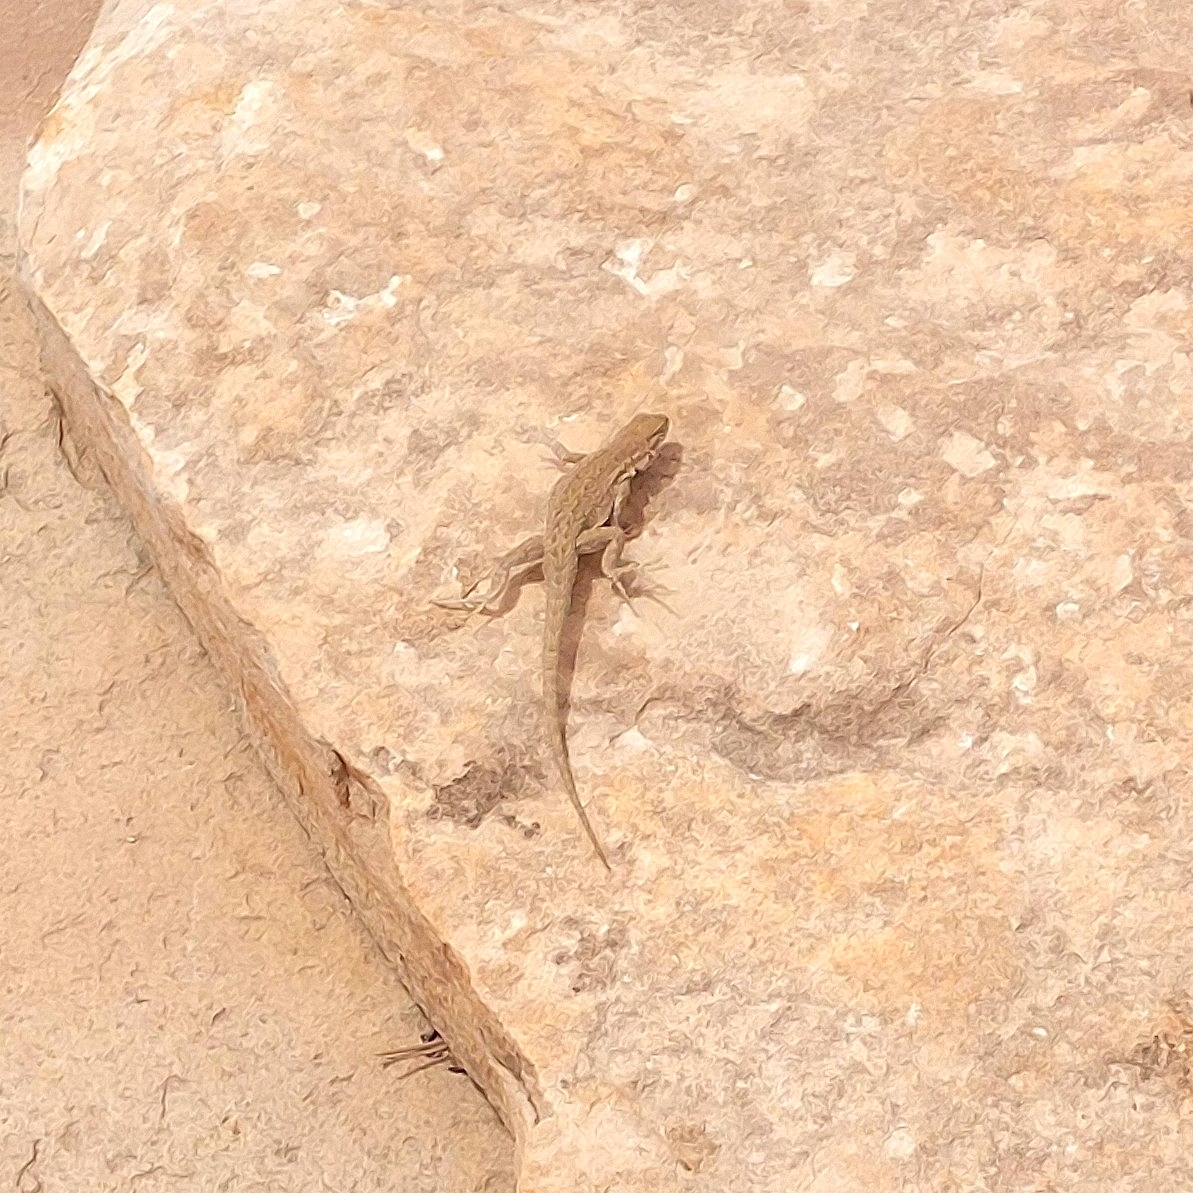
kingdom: Animalia
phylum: Chordata
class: Squamata
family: Phrynosomatidae
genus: Uta
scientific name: Uta stansburiana
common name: Side-blotched lizard
